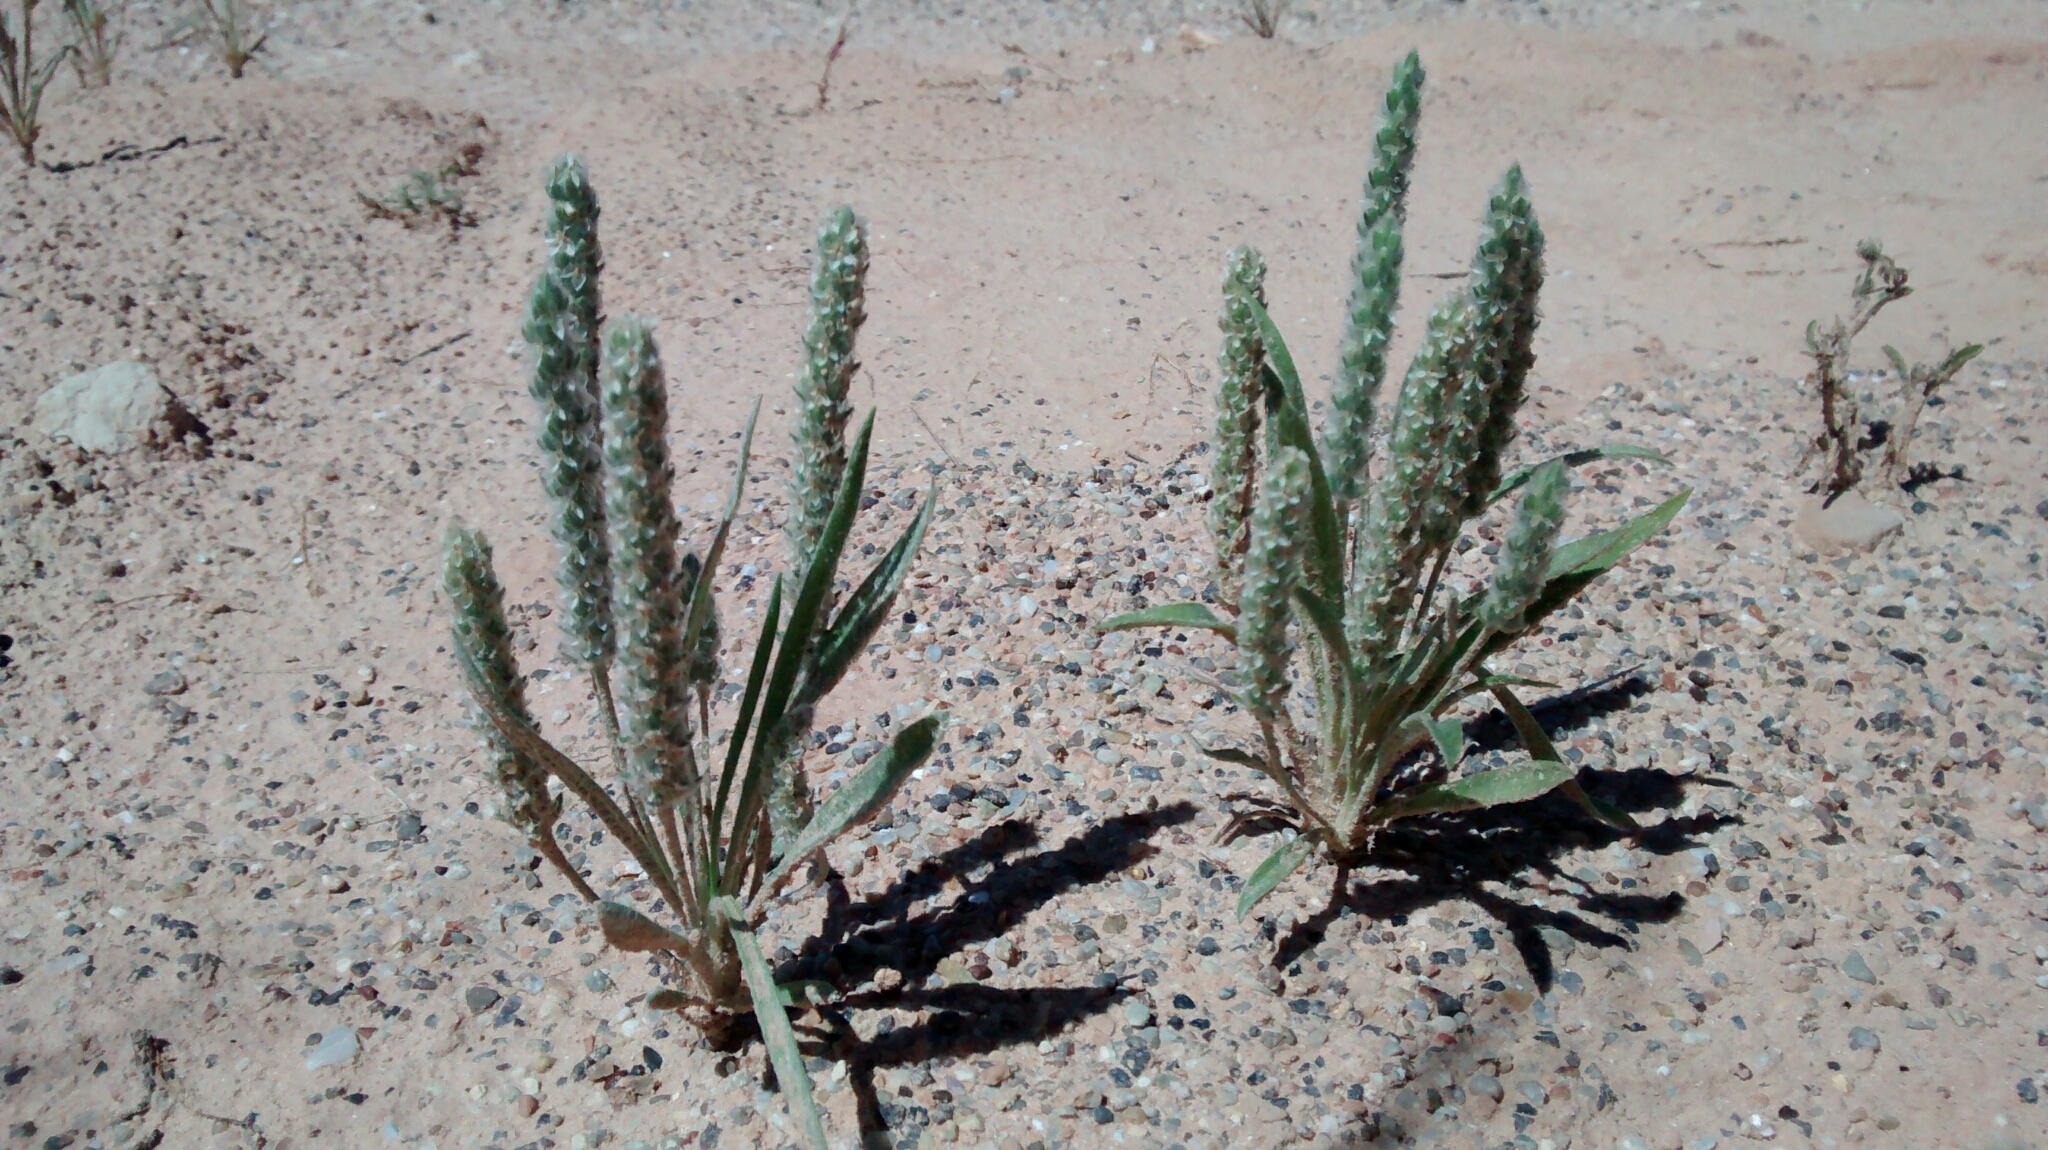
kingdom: Plantae
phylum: Tracheophyta
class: Magnoliopsida
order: Lamiales
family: Plantaginaceae
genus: Plantago
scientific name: Plantago patagonica
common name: Patagonia indian-wheat
